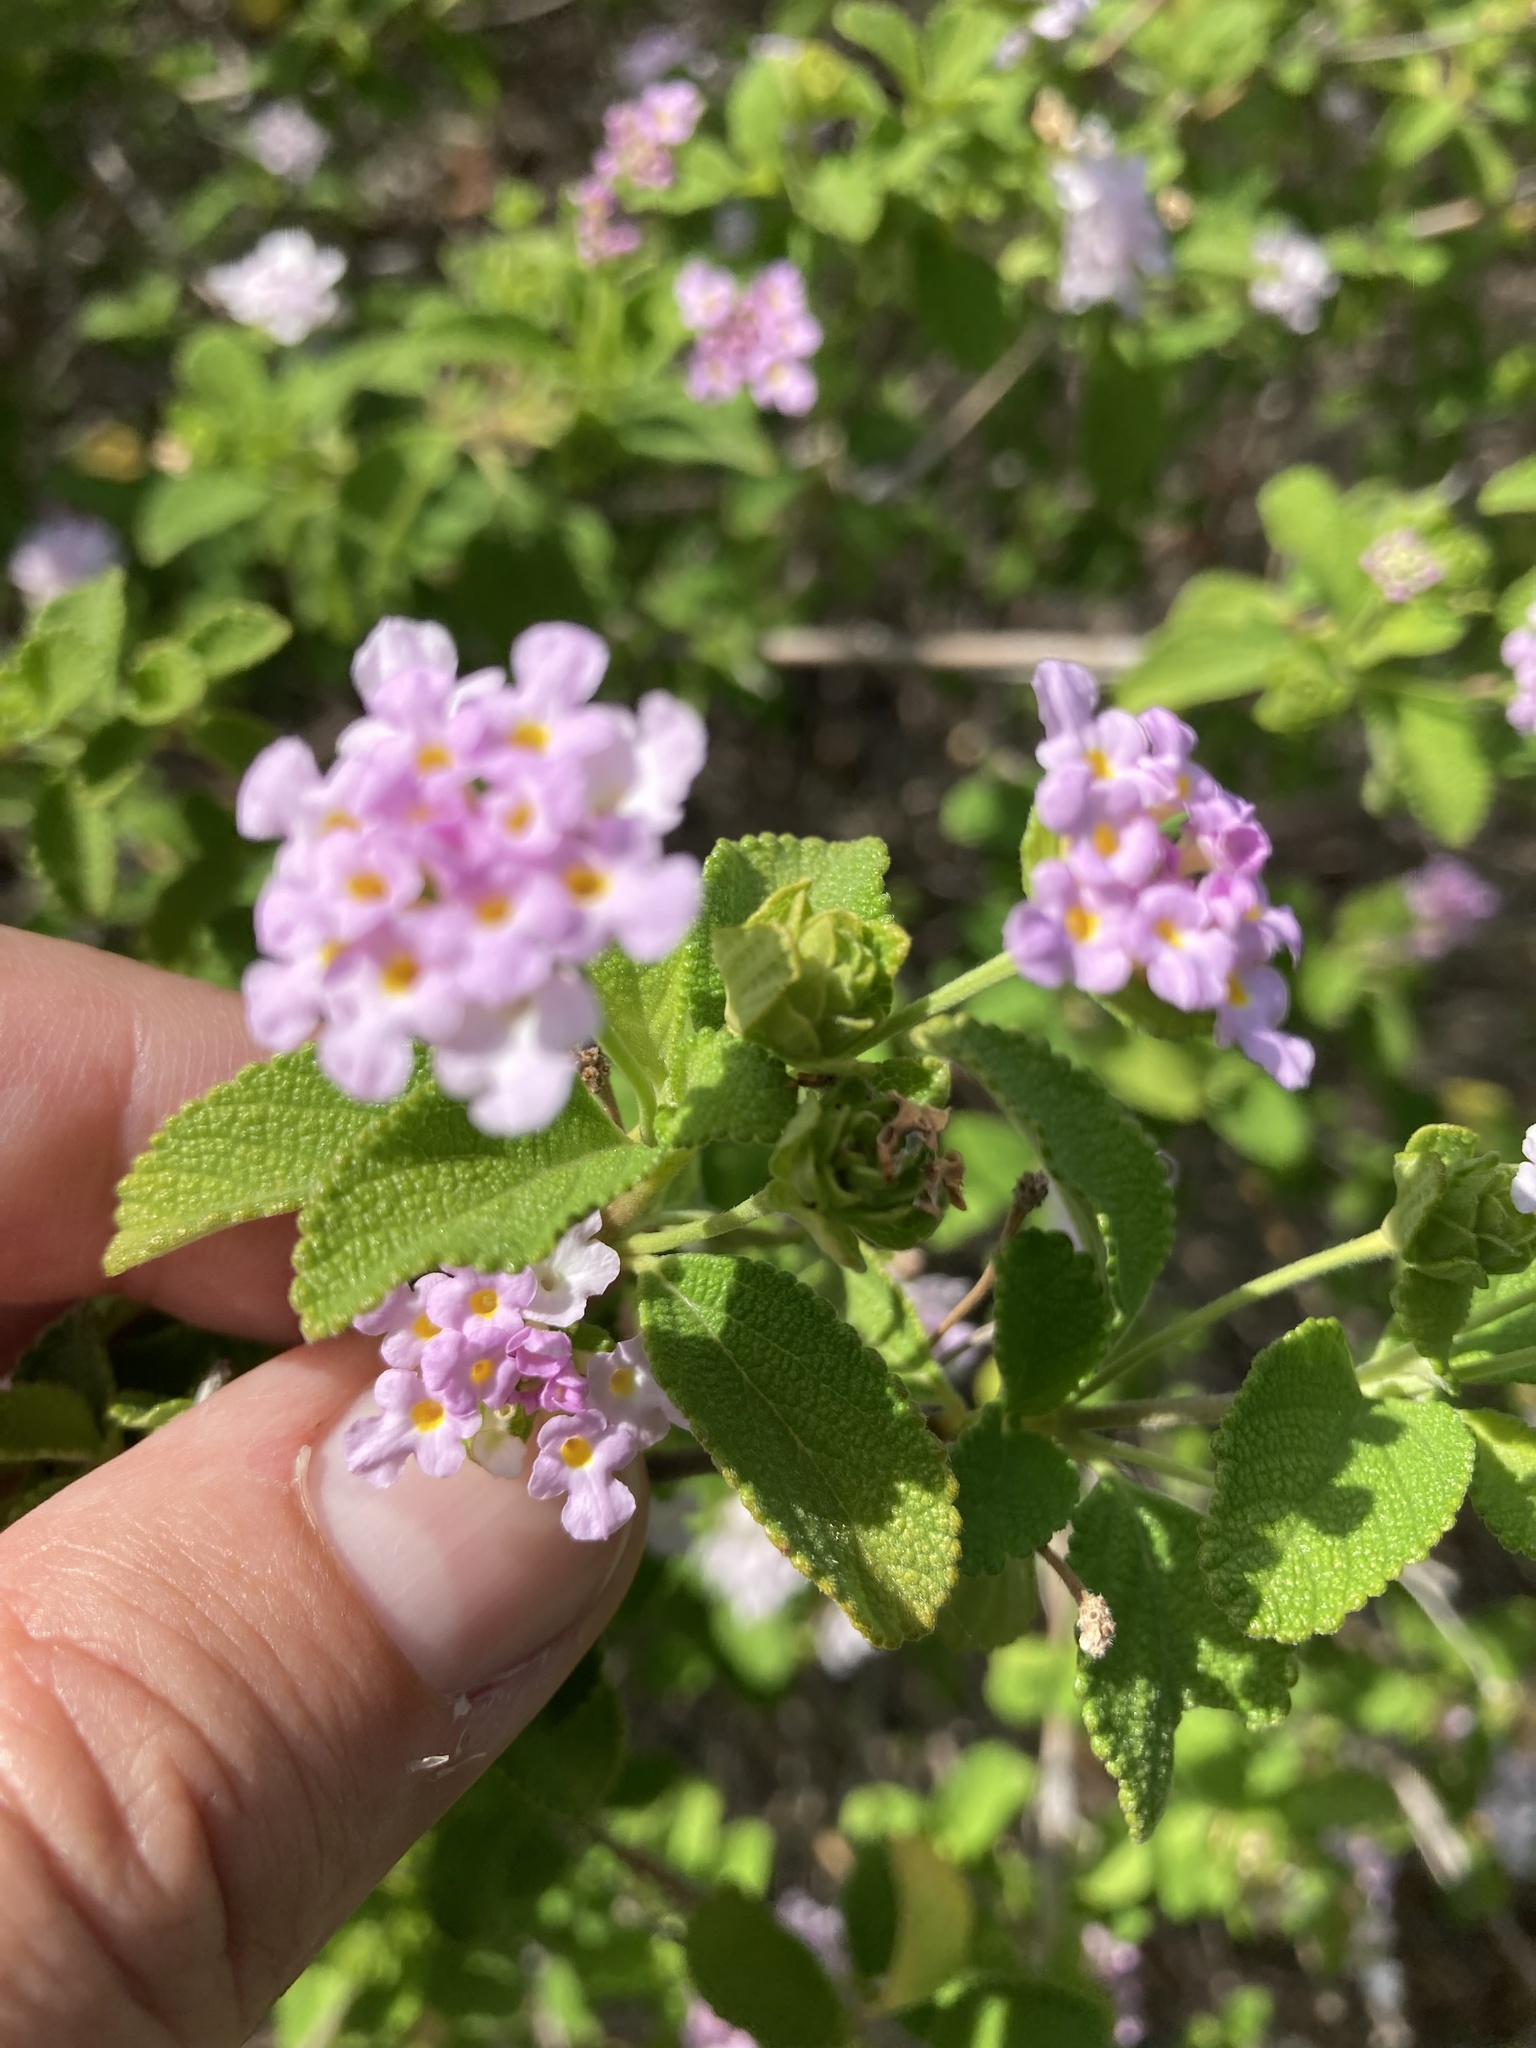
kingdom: Plantae
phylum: Tracheophyta
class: Magnoliopsida
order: Lamiales
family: Verbenaceae
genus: Lantana
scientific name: Lantana involucrata
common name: Black sage
